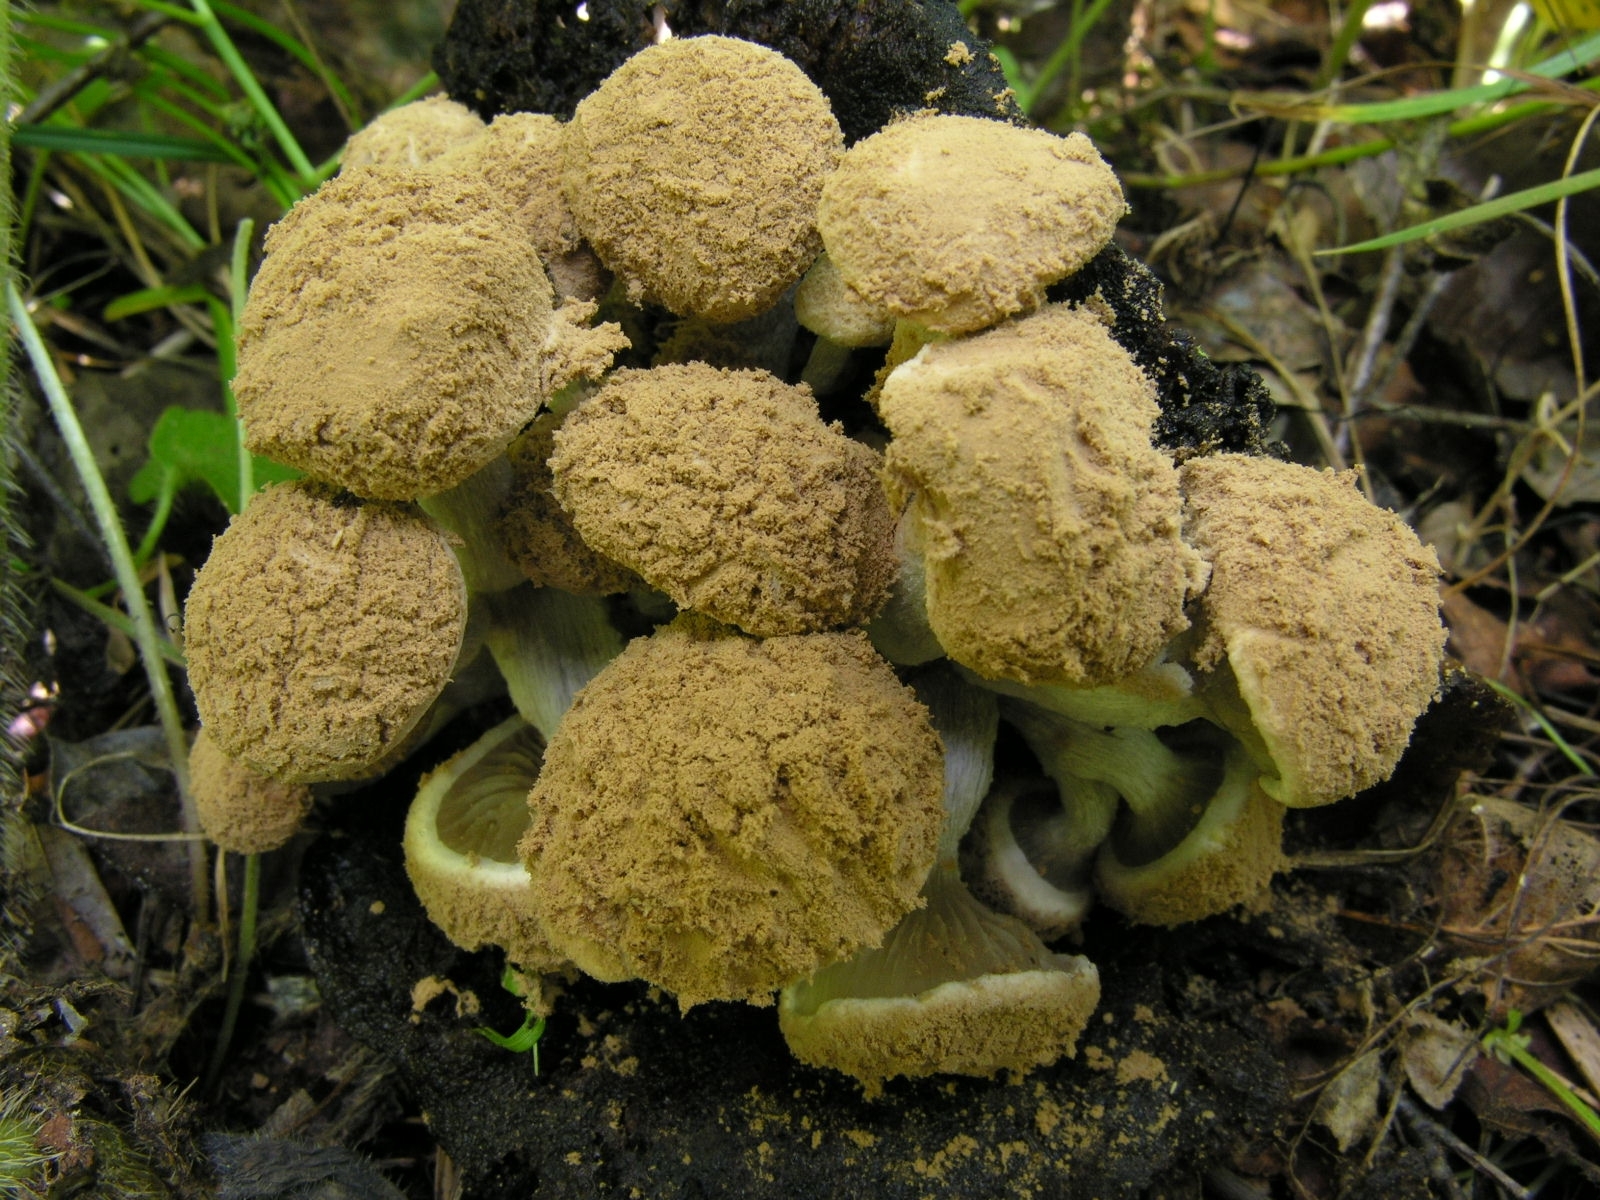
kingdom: Fungi
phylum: Basidiomycota
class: Agaricomycetes
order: Agaricales
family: Lyophyllaceae
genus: Asterophora
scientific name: Asterophora lycoperdoides
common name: Pick-a-back toadstool
